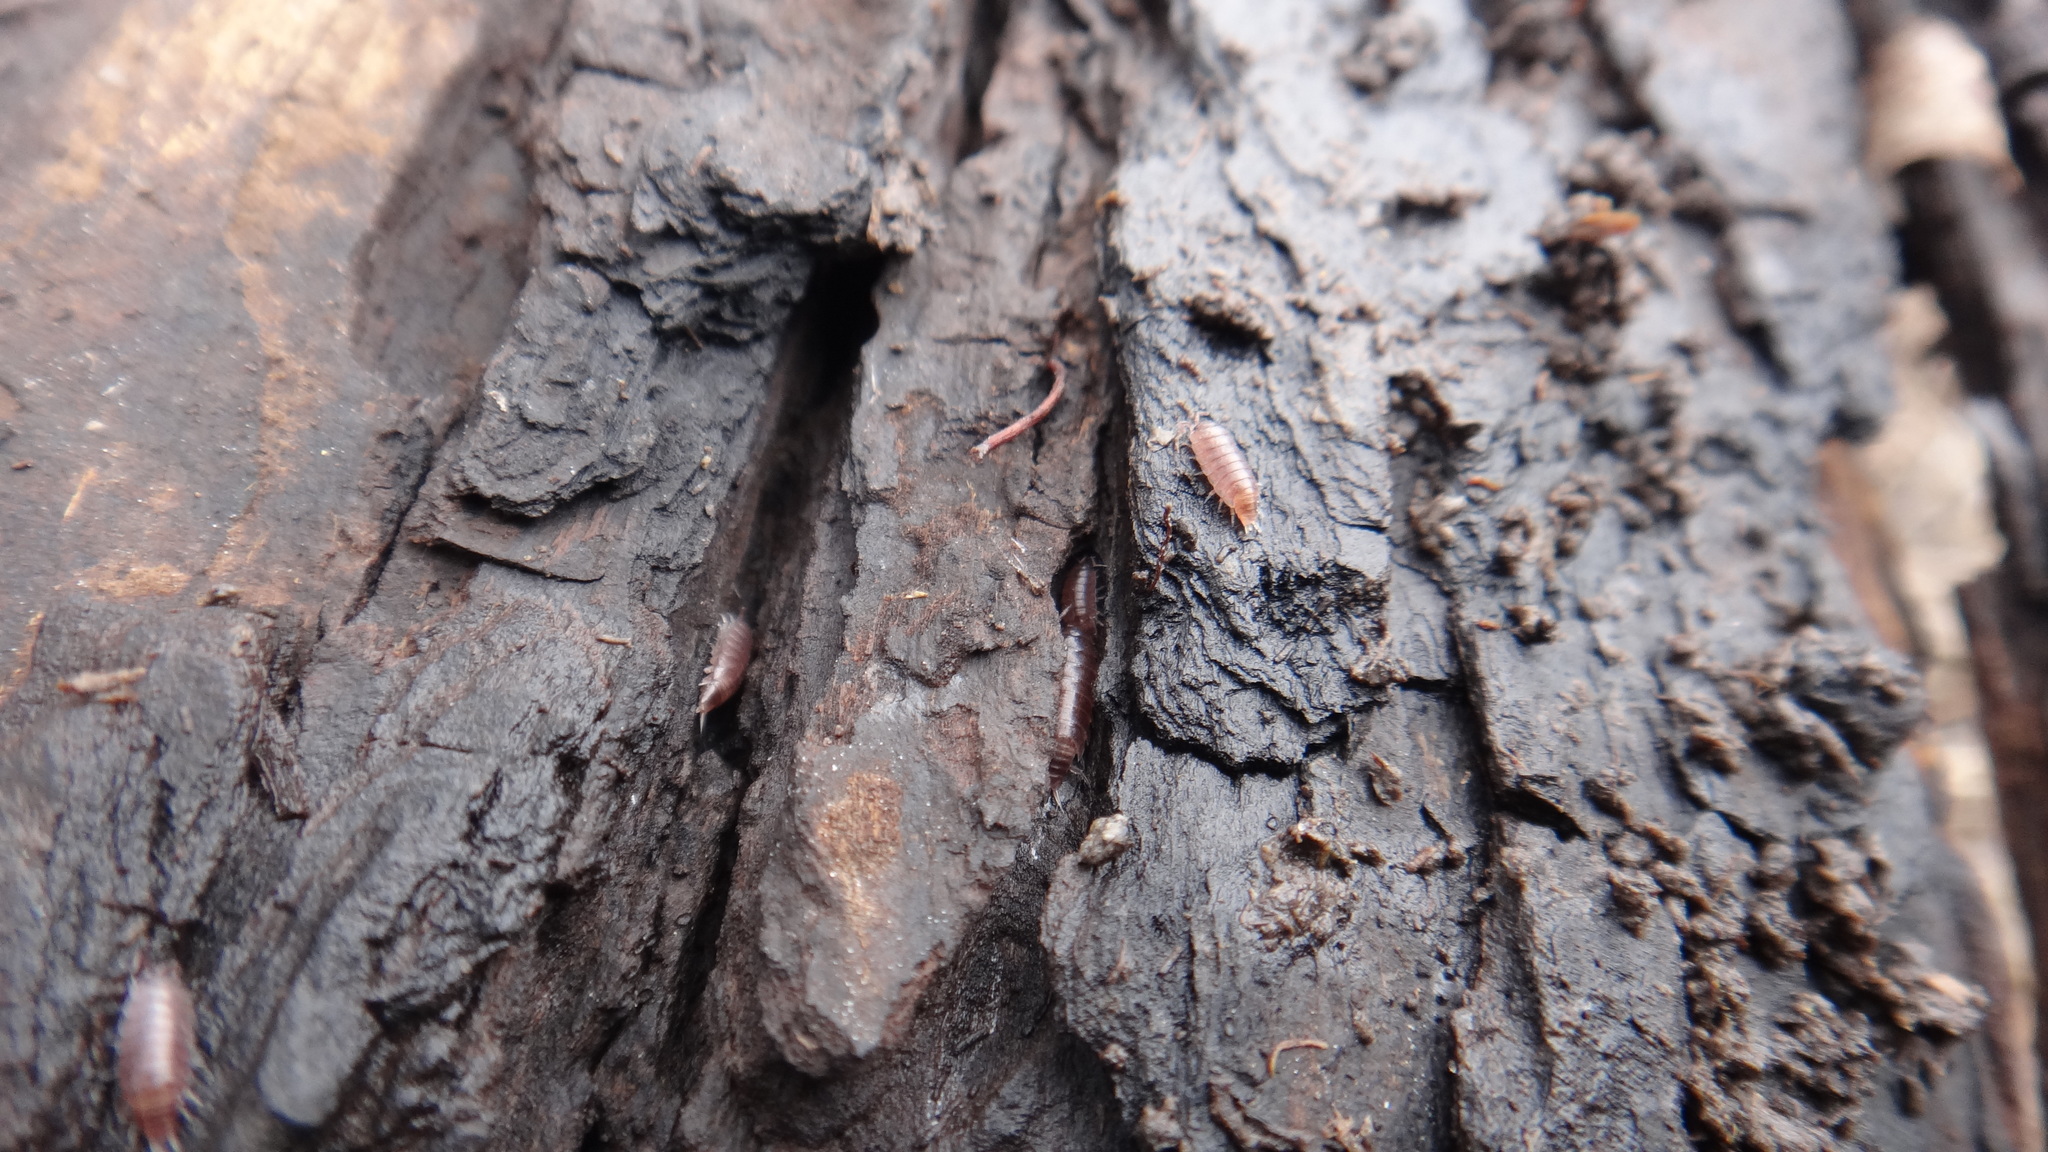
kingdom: Animalia
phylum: Arthropoda
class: Malacostraca
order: Isopoda
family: Trichoniscidae
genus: Hyloniscus
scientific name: Hyloniscus riparius
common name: Isopod
